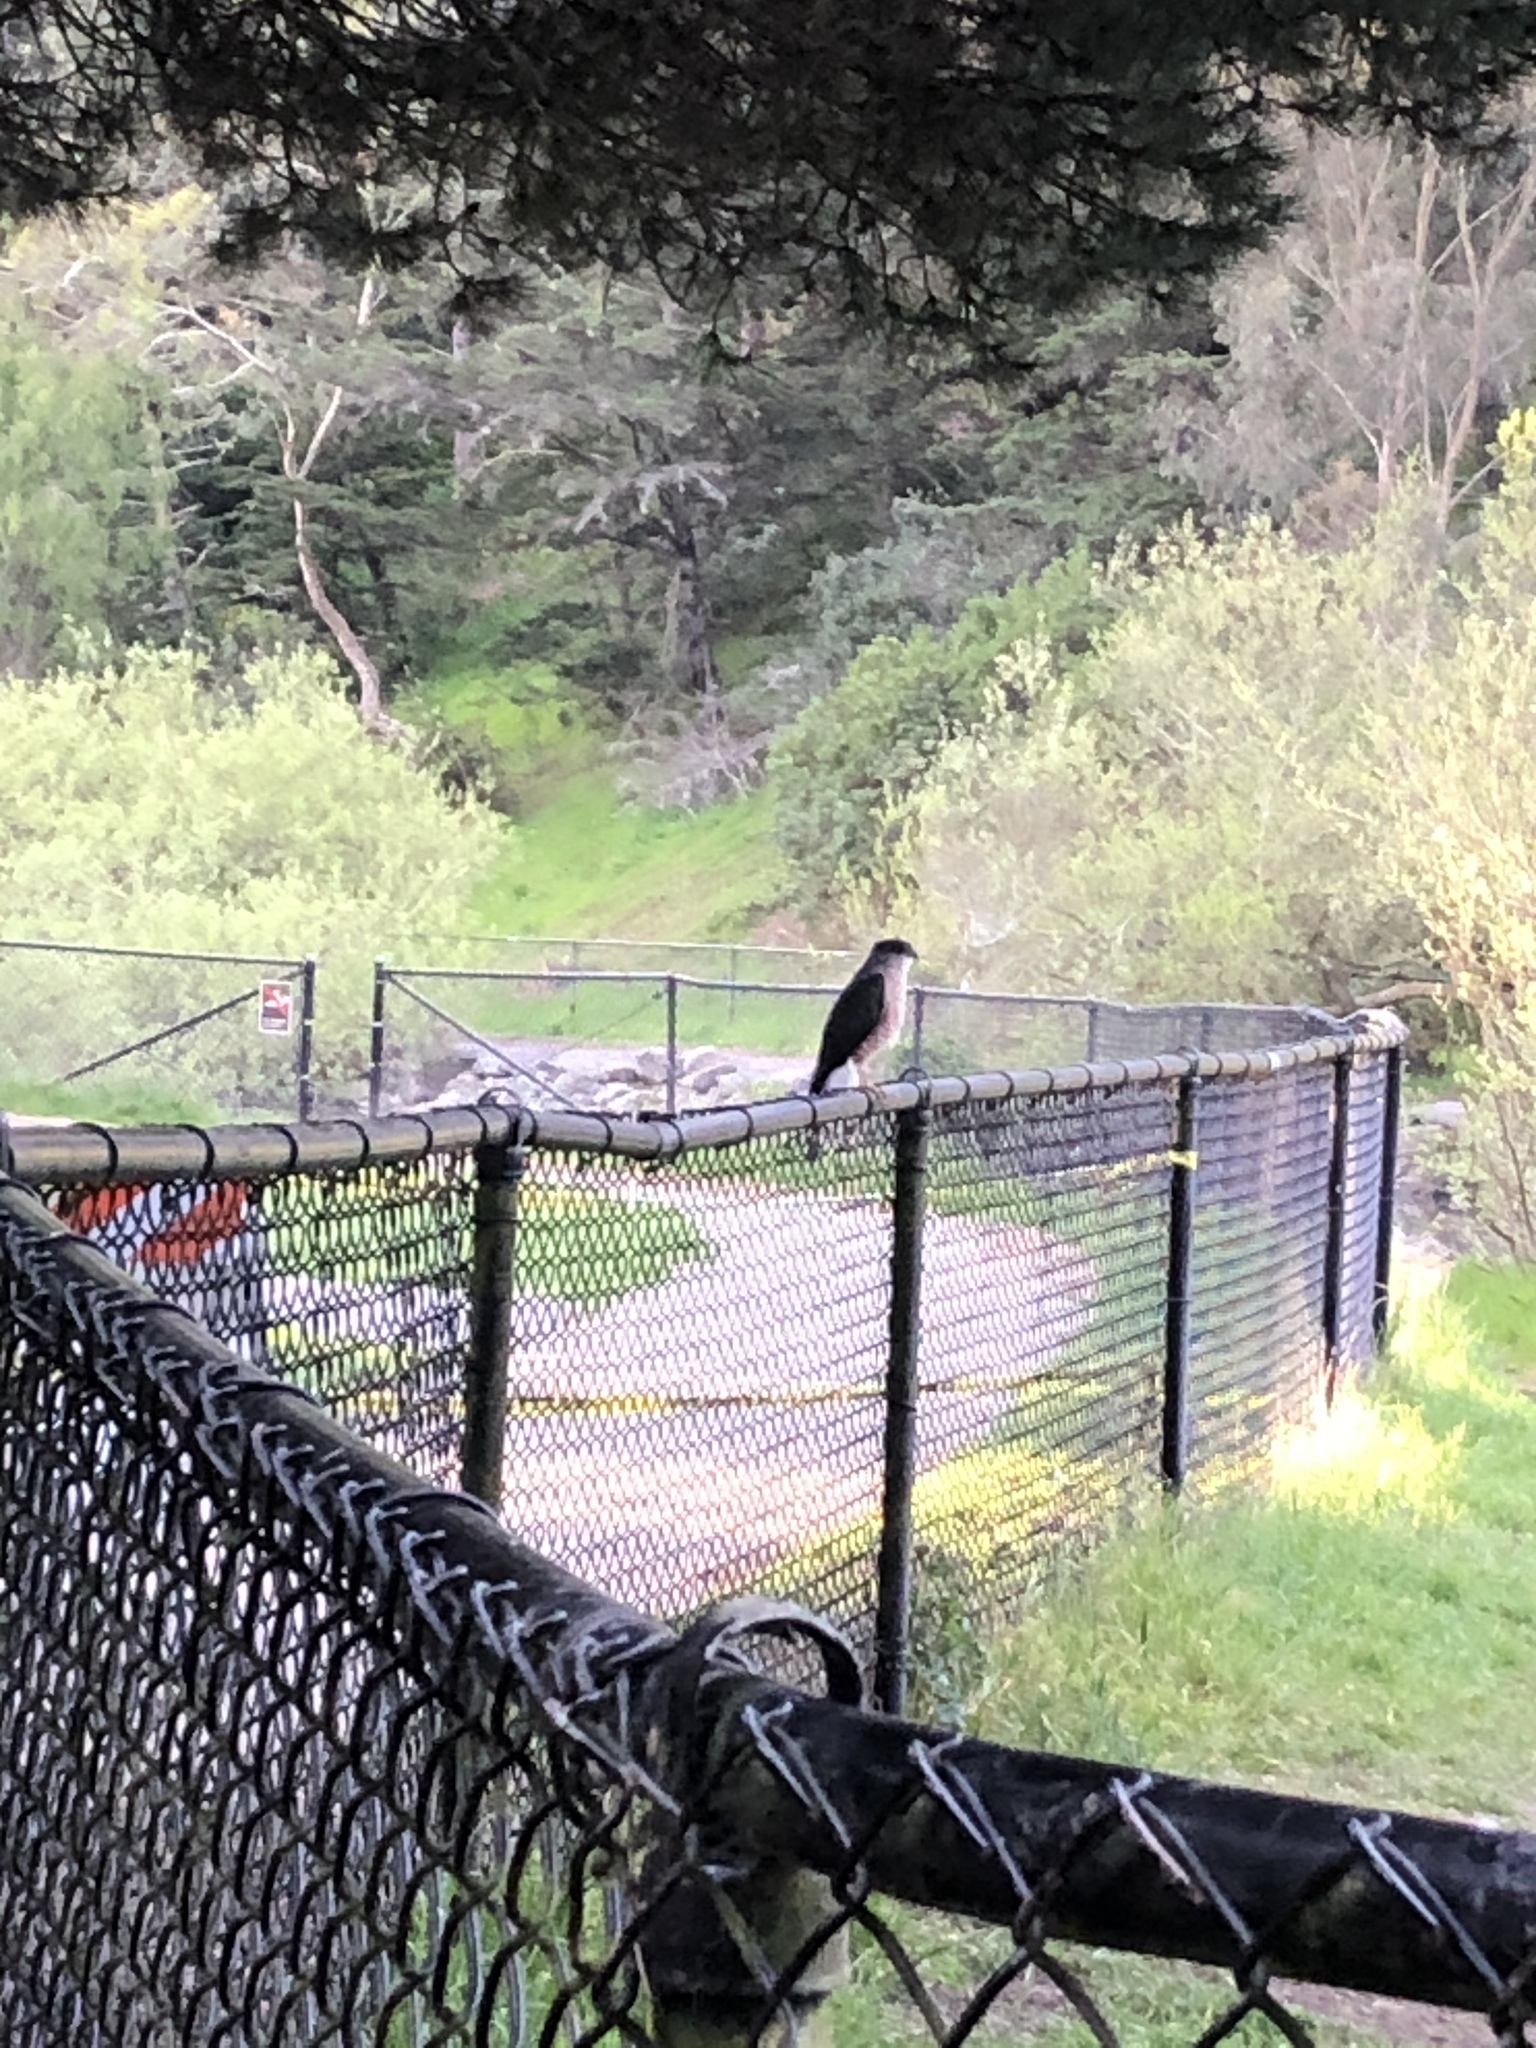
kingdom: Animalia
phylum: Chordata
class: Aves
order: Accipitriformes
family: Accipitridae
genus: Accipiter
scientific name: Accipiter cooperii
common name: Cooper's hawk
